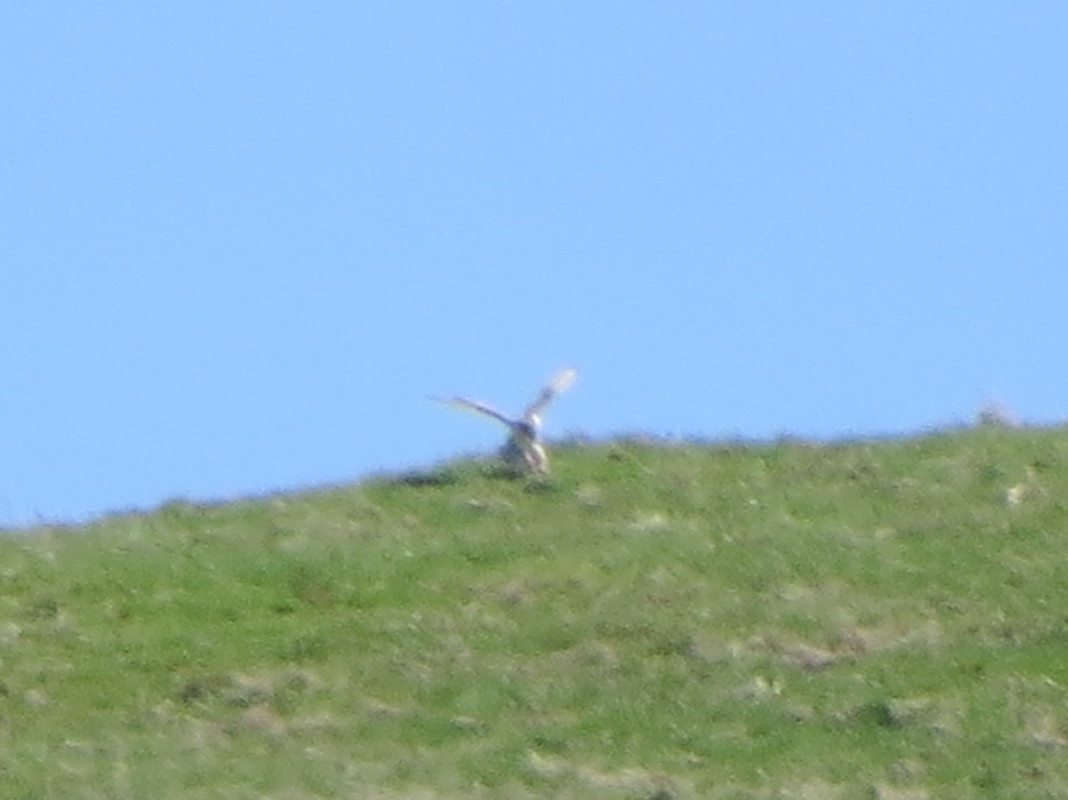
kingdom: Animalia
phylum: Chordata
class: Aves
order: Accipitriformes
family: Accipitridae
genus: Buteo
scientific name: Buteo regalis
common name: Ferruginous hawk
